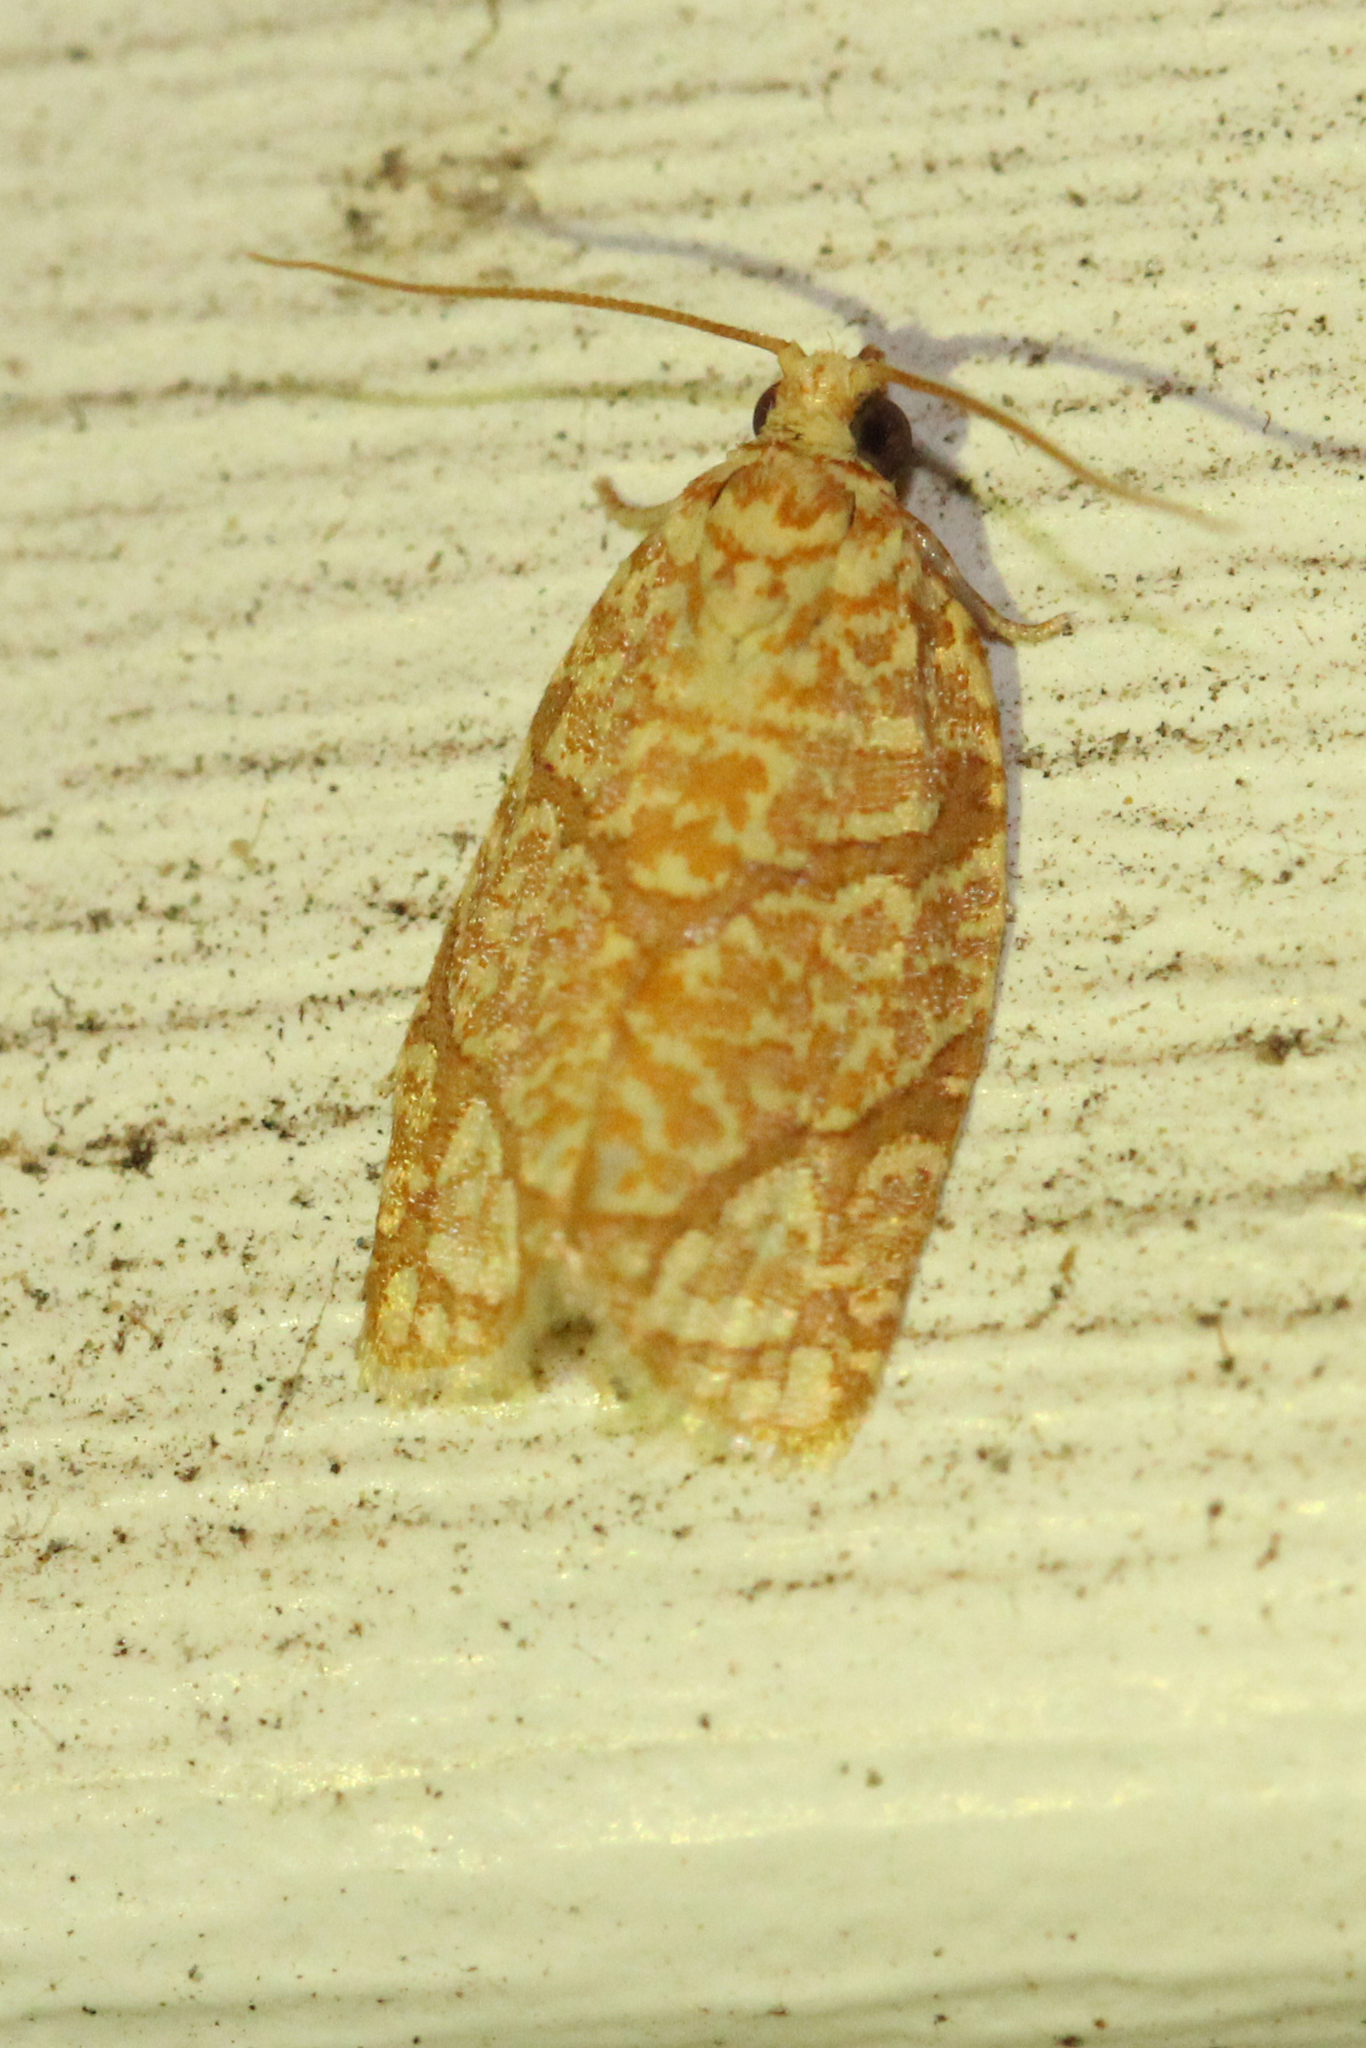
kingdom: Animalia
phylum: Arthropoda
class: Insecta
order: Lepidoptera
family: Tortricidae
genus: Argyrotaenia
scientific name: Argyrotaenia quercifoliana
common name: Yellow-winged oak leafroller moth
